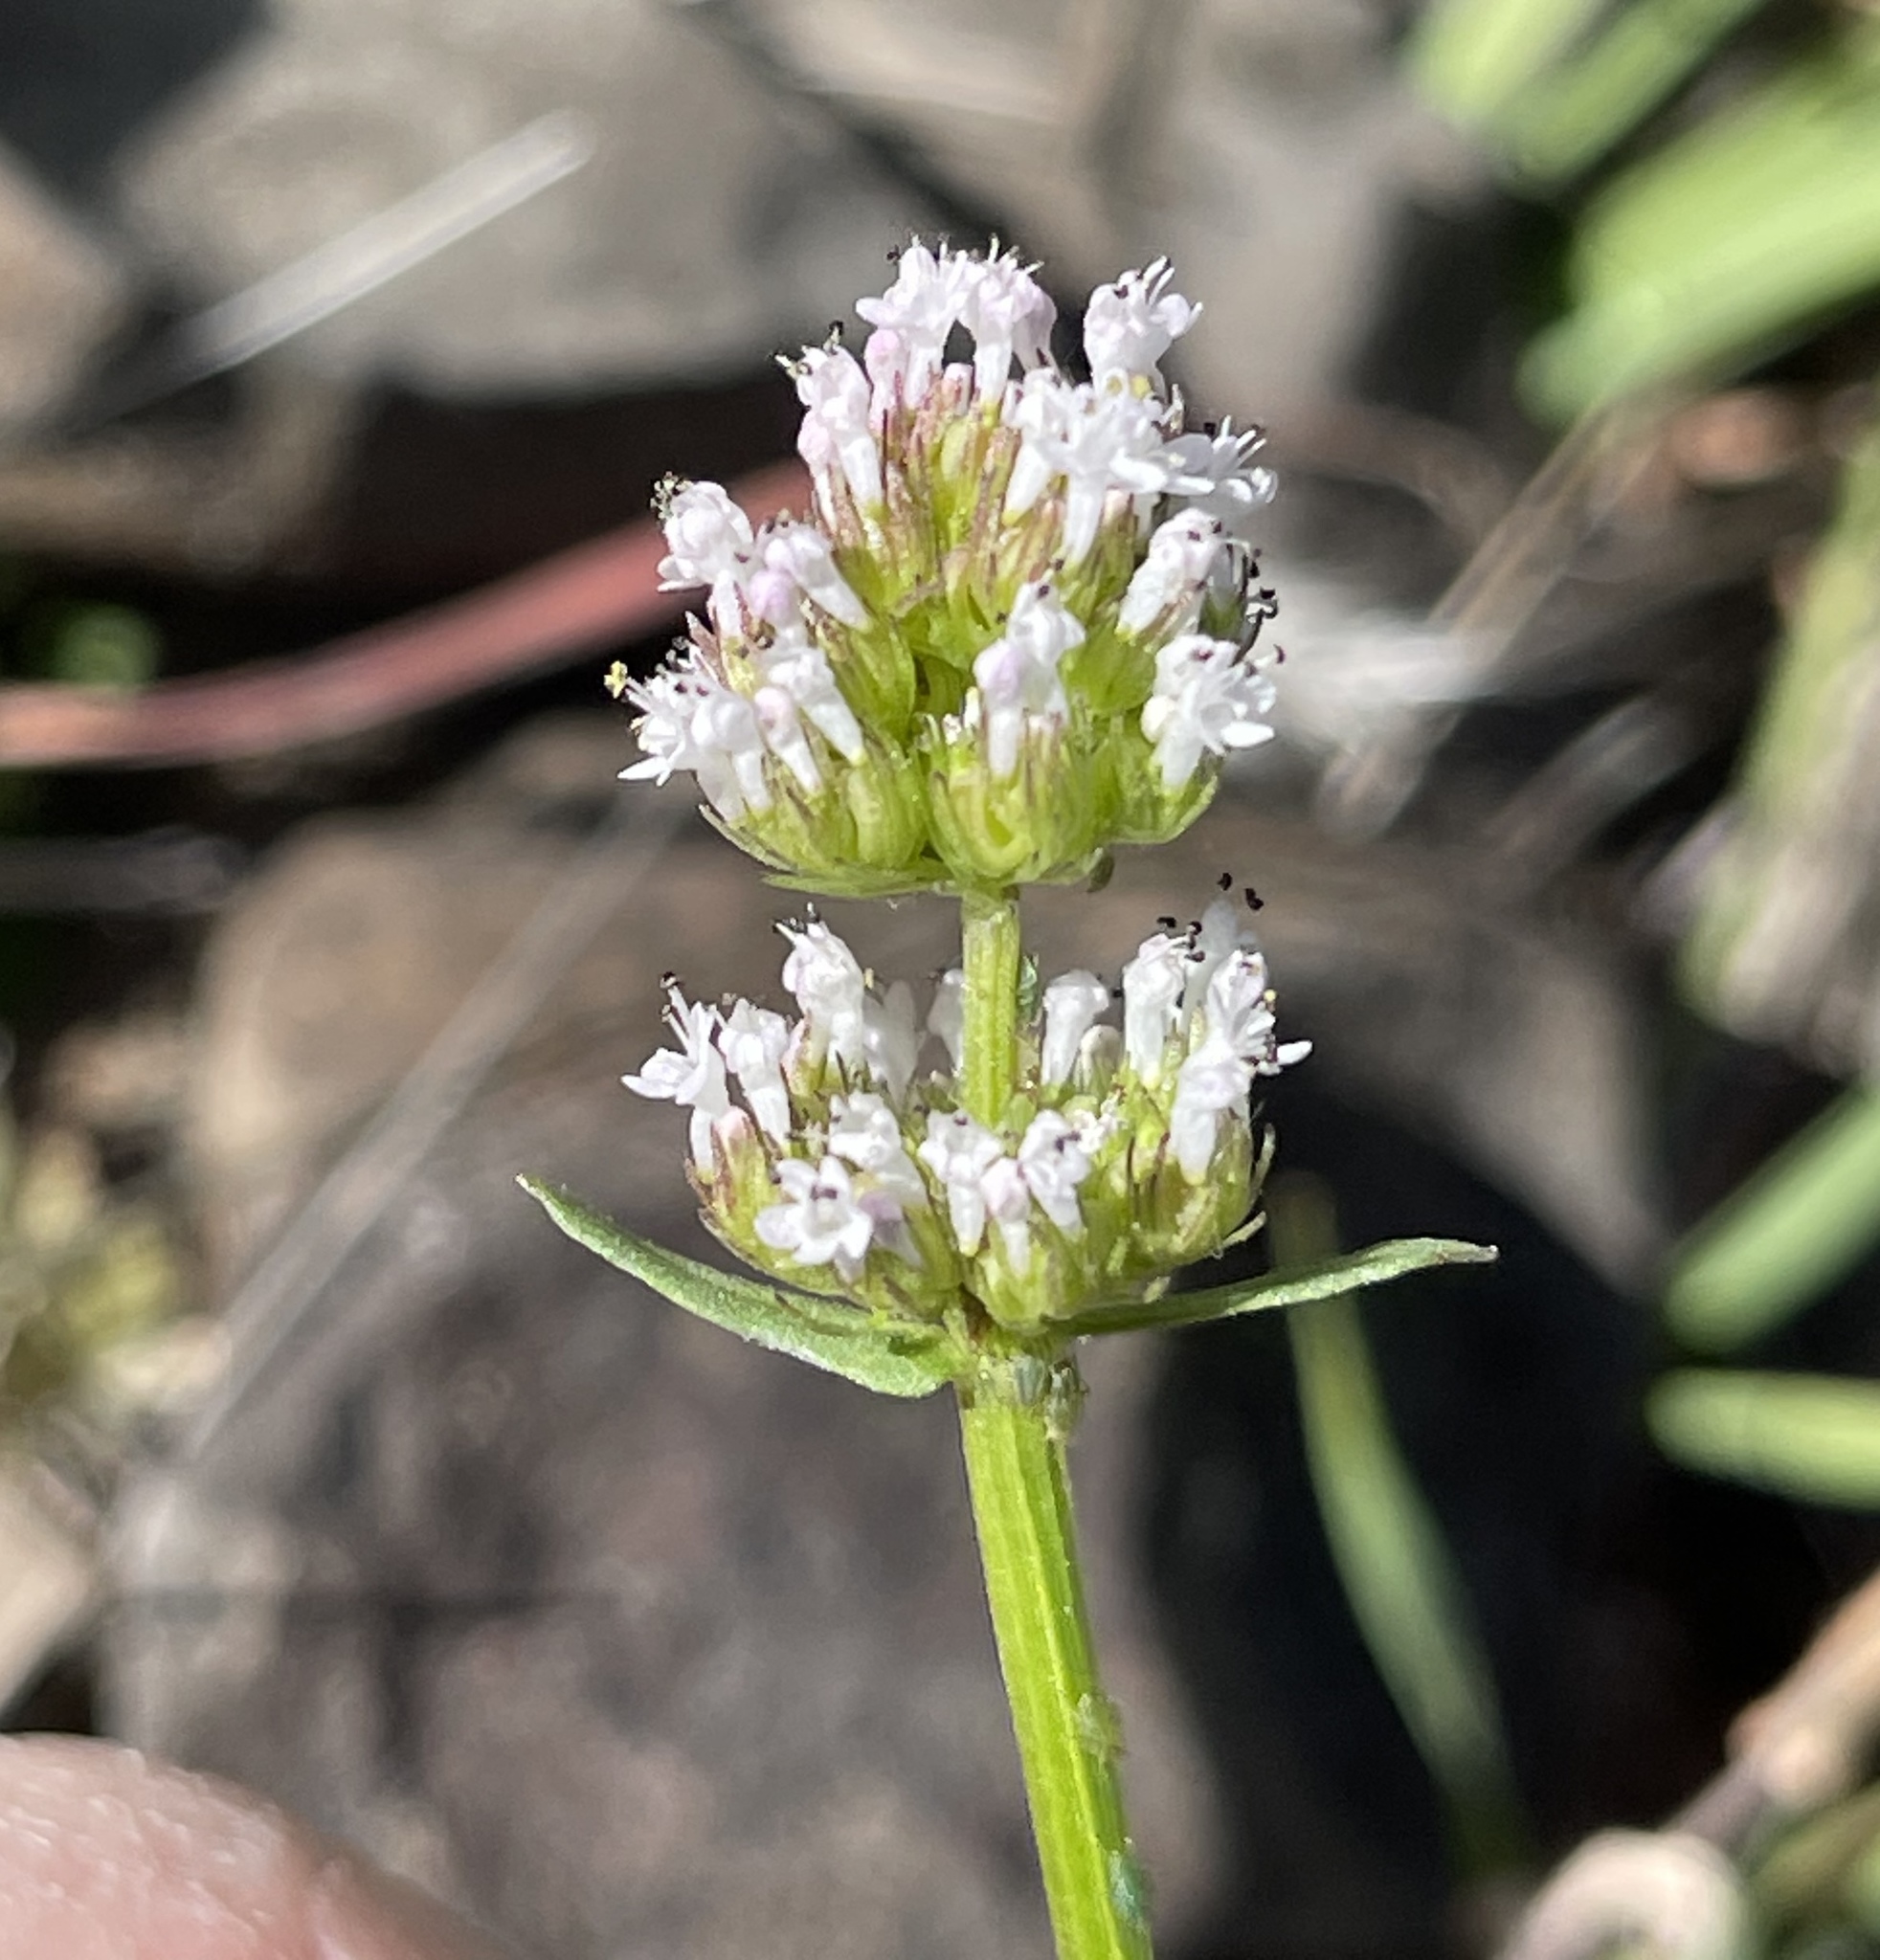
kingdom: Plantae
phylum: Tracheophyta
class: Magnoliopsida
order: Dipsacales
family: Caprifoliaceae
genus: Plectritis
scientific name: Plectritis macroptera
